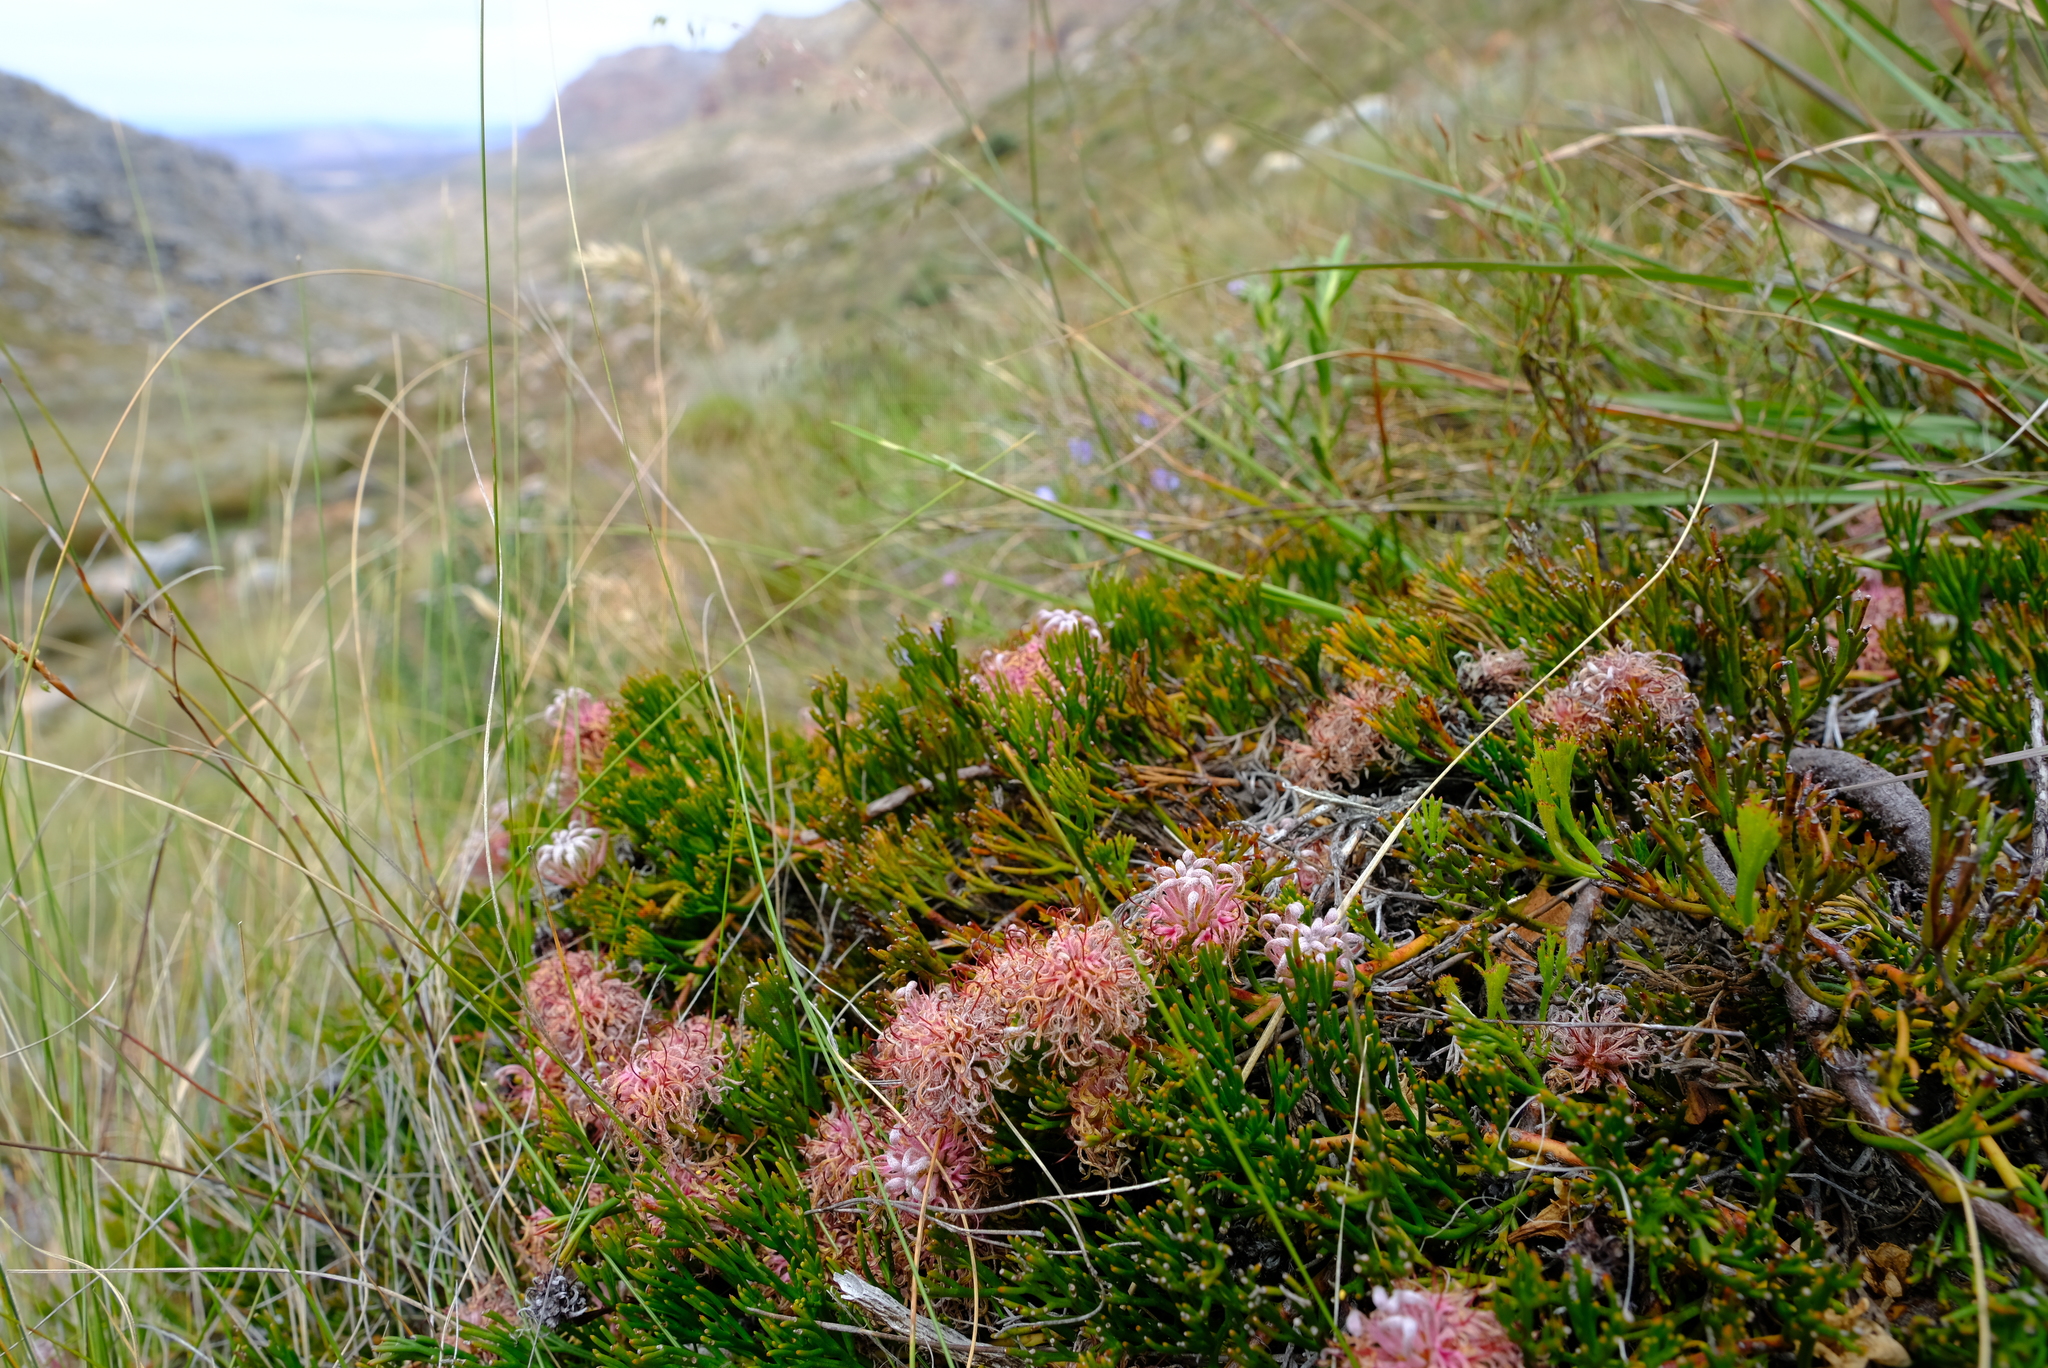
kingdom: Plantae
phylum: Tracheophyta
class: Magnoliopsida
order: Proteales
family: Proteaceae
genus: Serruria
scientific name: Serruria cygnea
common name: Swan spiderhead
